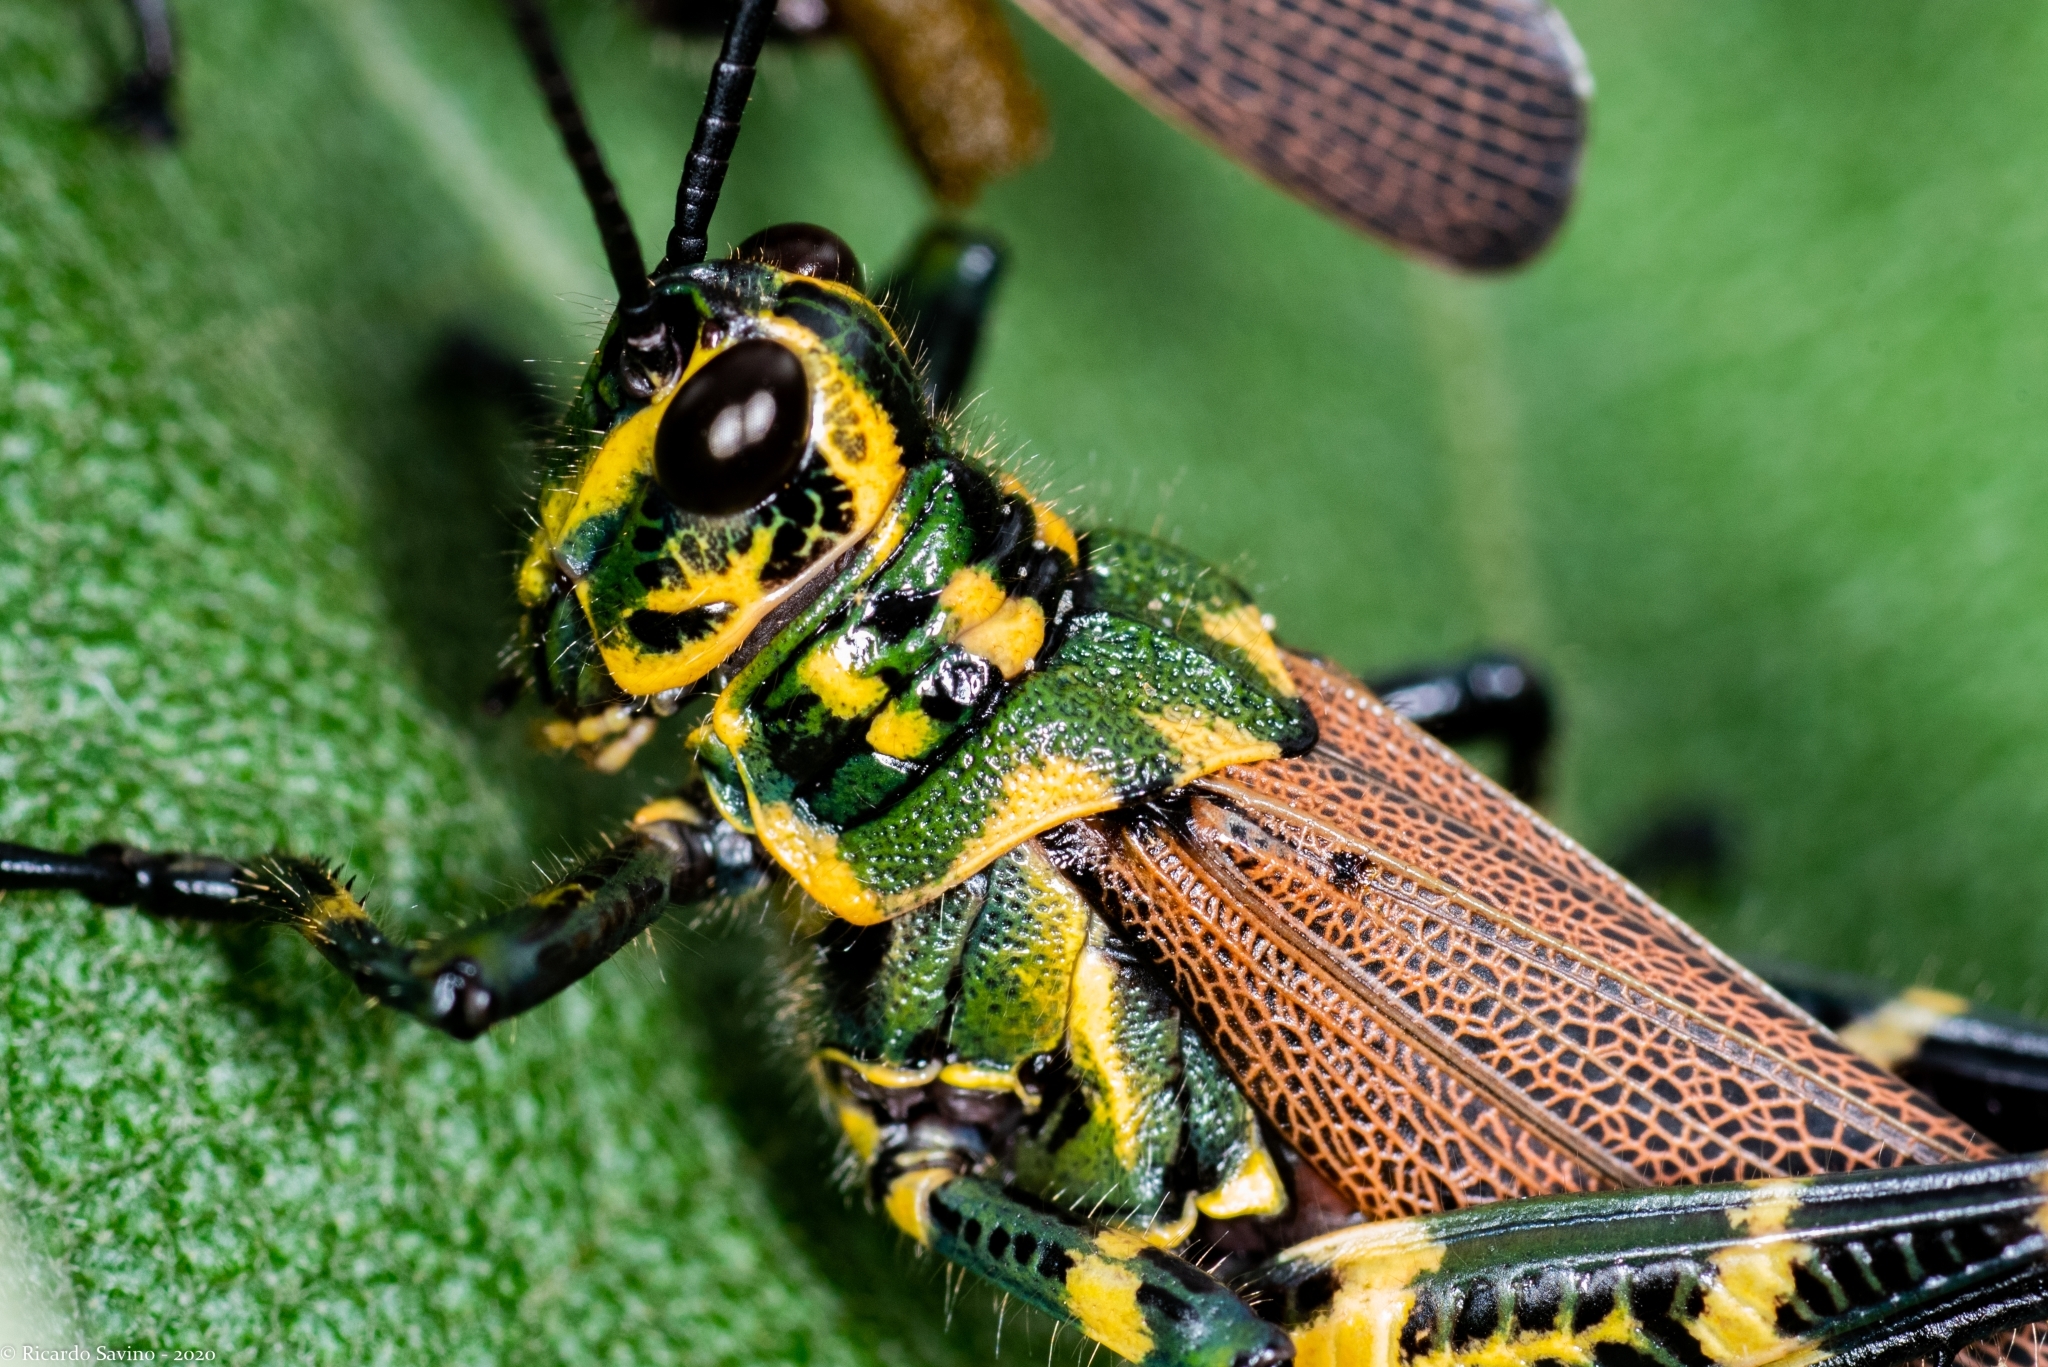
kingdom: Animalia
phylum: Arthropoda
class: Insecta
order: Orthoptera
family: Romaleidae
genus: Chromacris
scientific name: Chromacris speciosa
